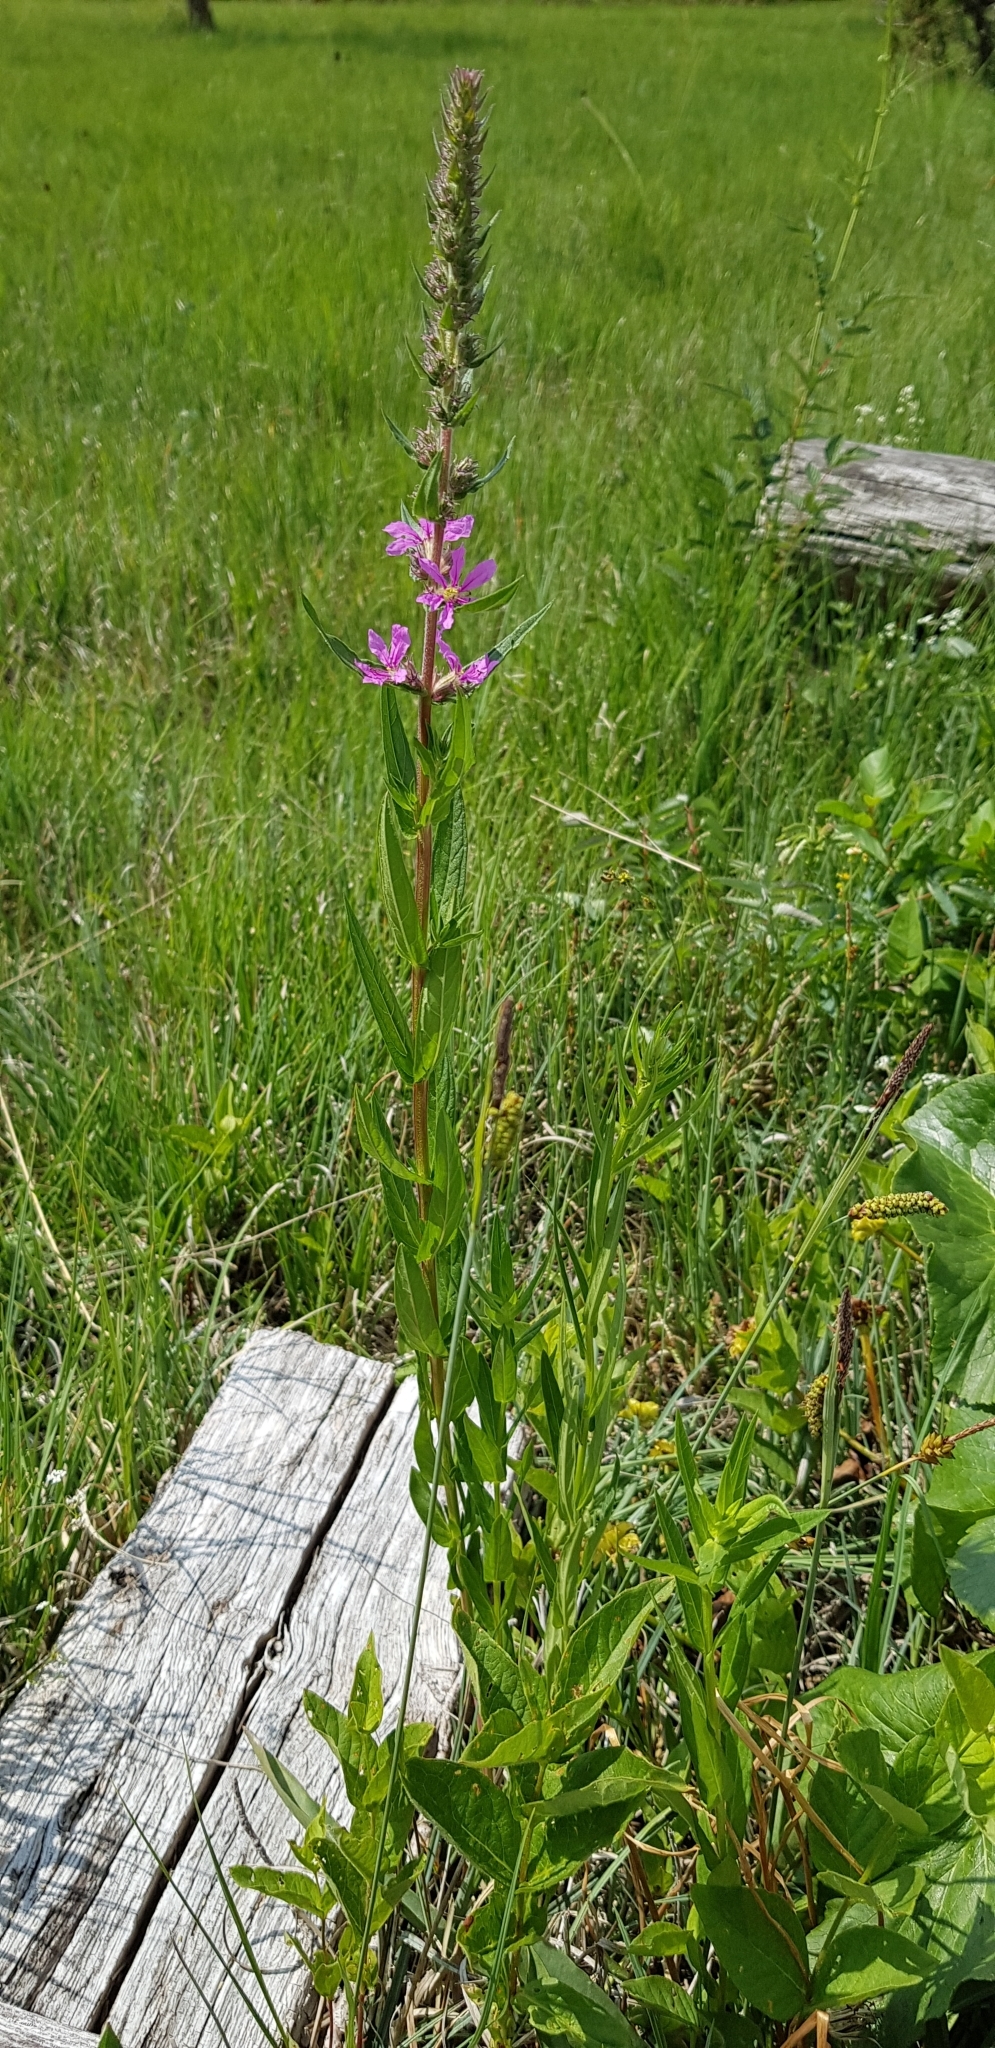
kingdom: Plantae
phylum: Tracheophyta
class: Magnoliopsida
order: Myrtales
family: Lythraceae
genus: Lythrum
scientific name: Lythrum salicaria
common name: Purple loosestrife
